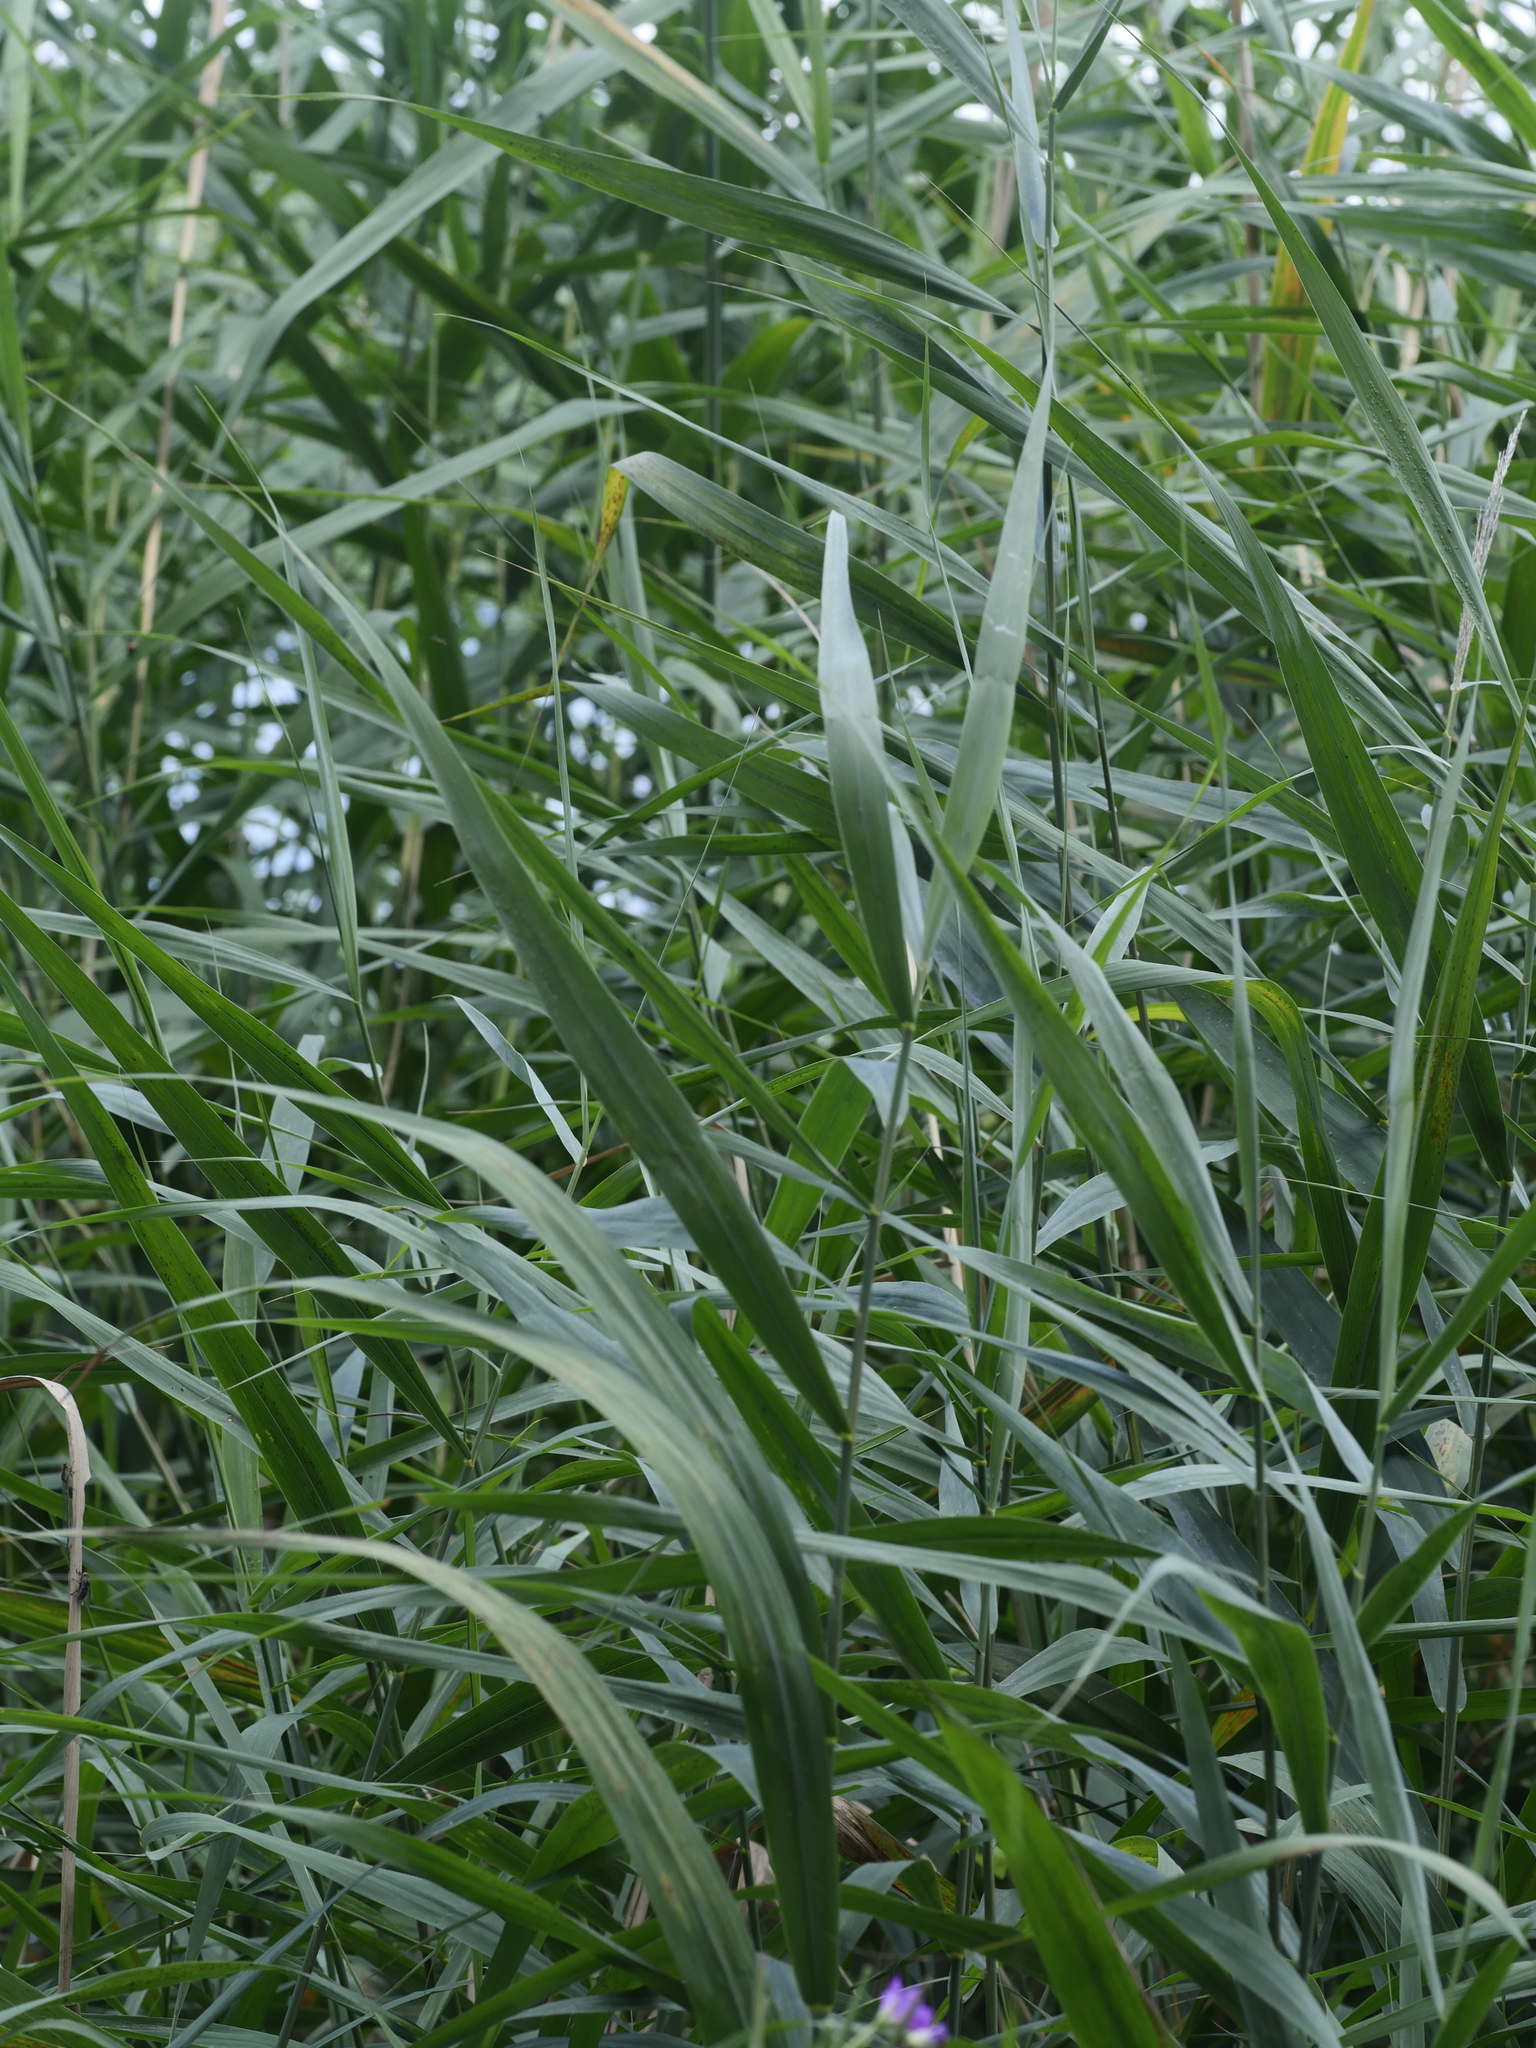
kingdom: Plantae
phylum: Tracheophyta
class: Liliopsida
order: Poales
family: Poaceae
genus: Phragmites
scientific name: Phragmites australis
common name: Common reed
